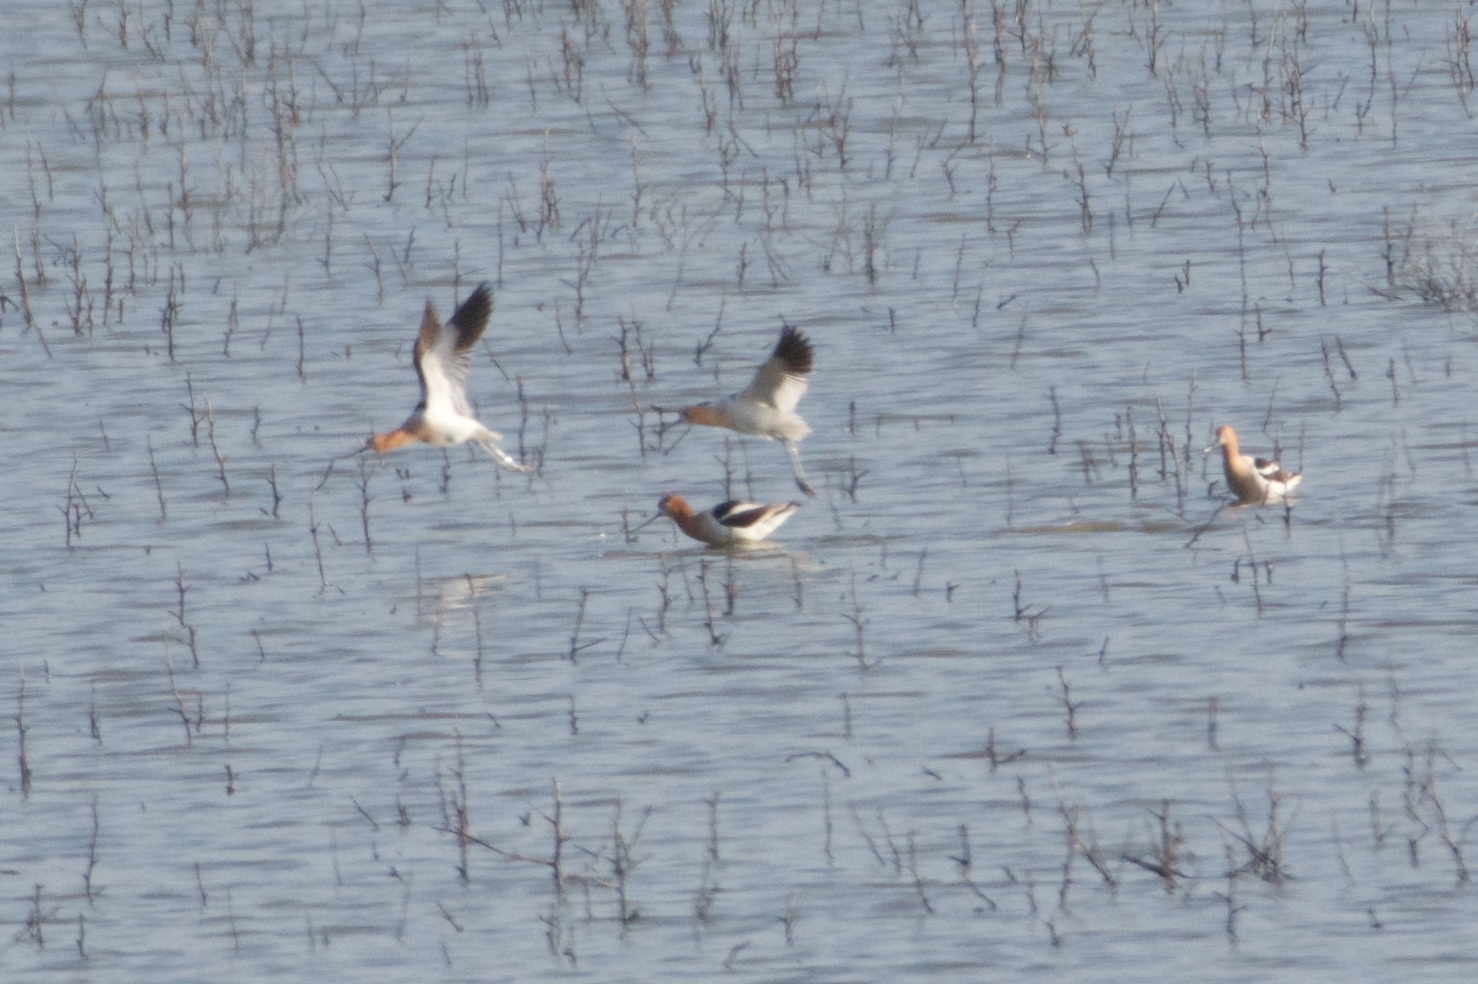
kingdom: Animalia
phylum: Chordata
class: Aves
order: Charadriiformes
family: Recurvirostridae
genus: Recurvirostra
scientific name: Recurvirostra americana
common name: American avocet
